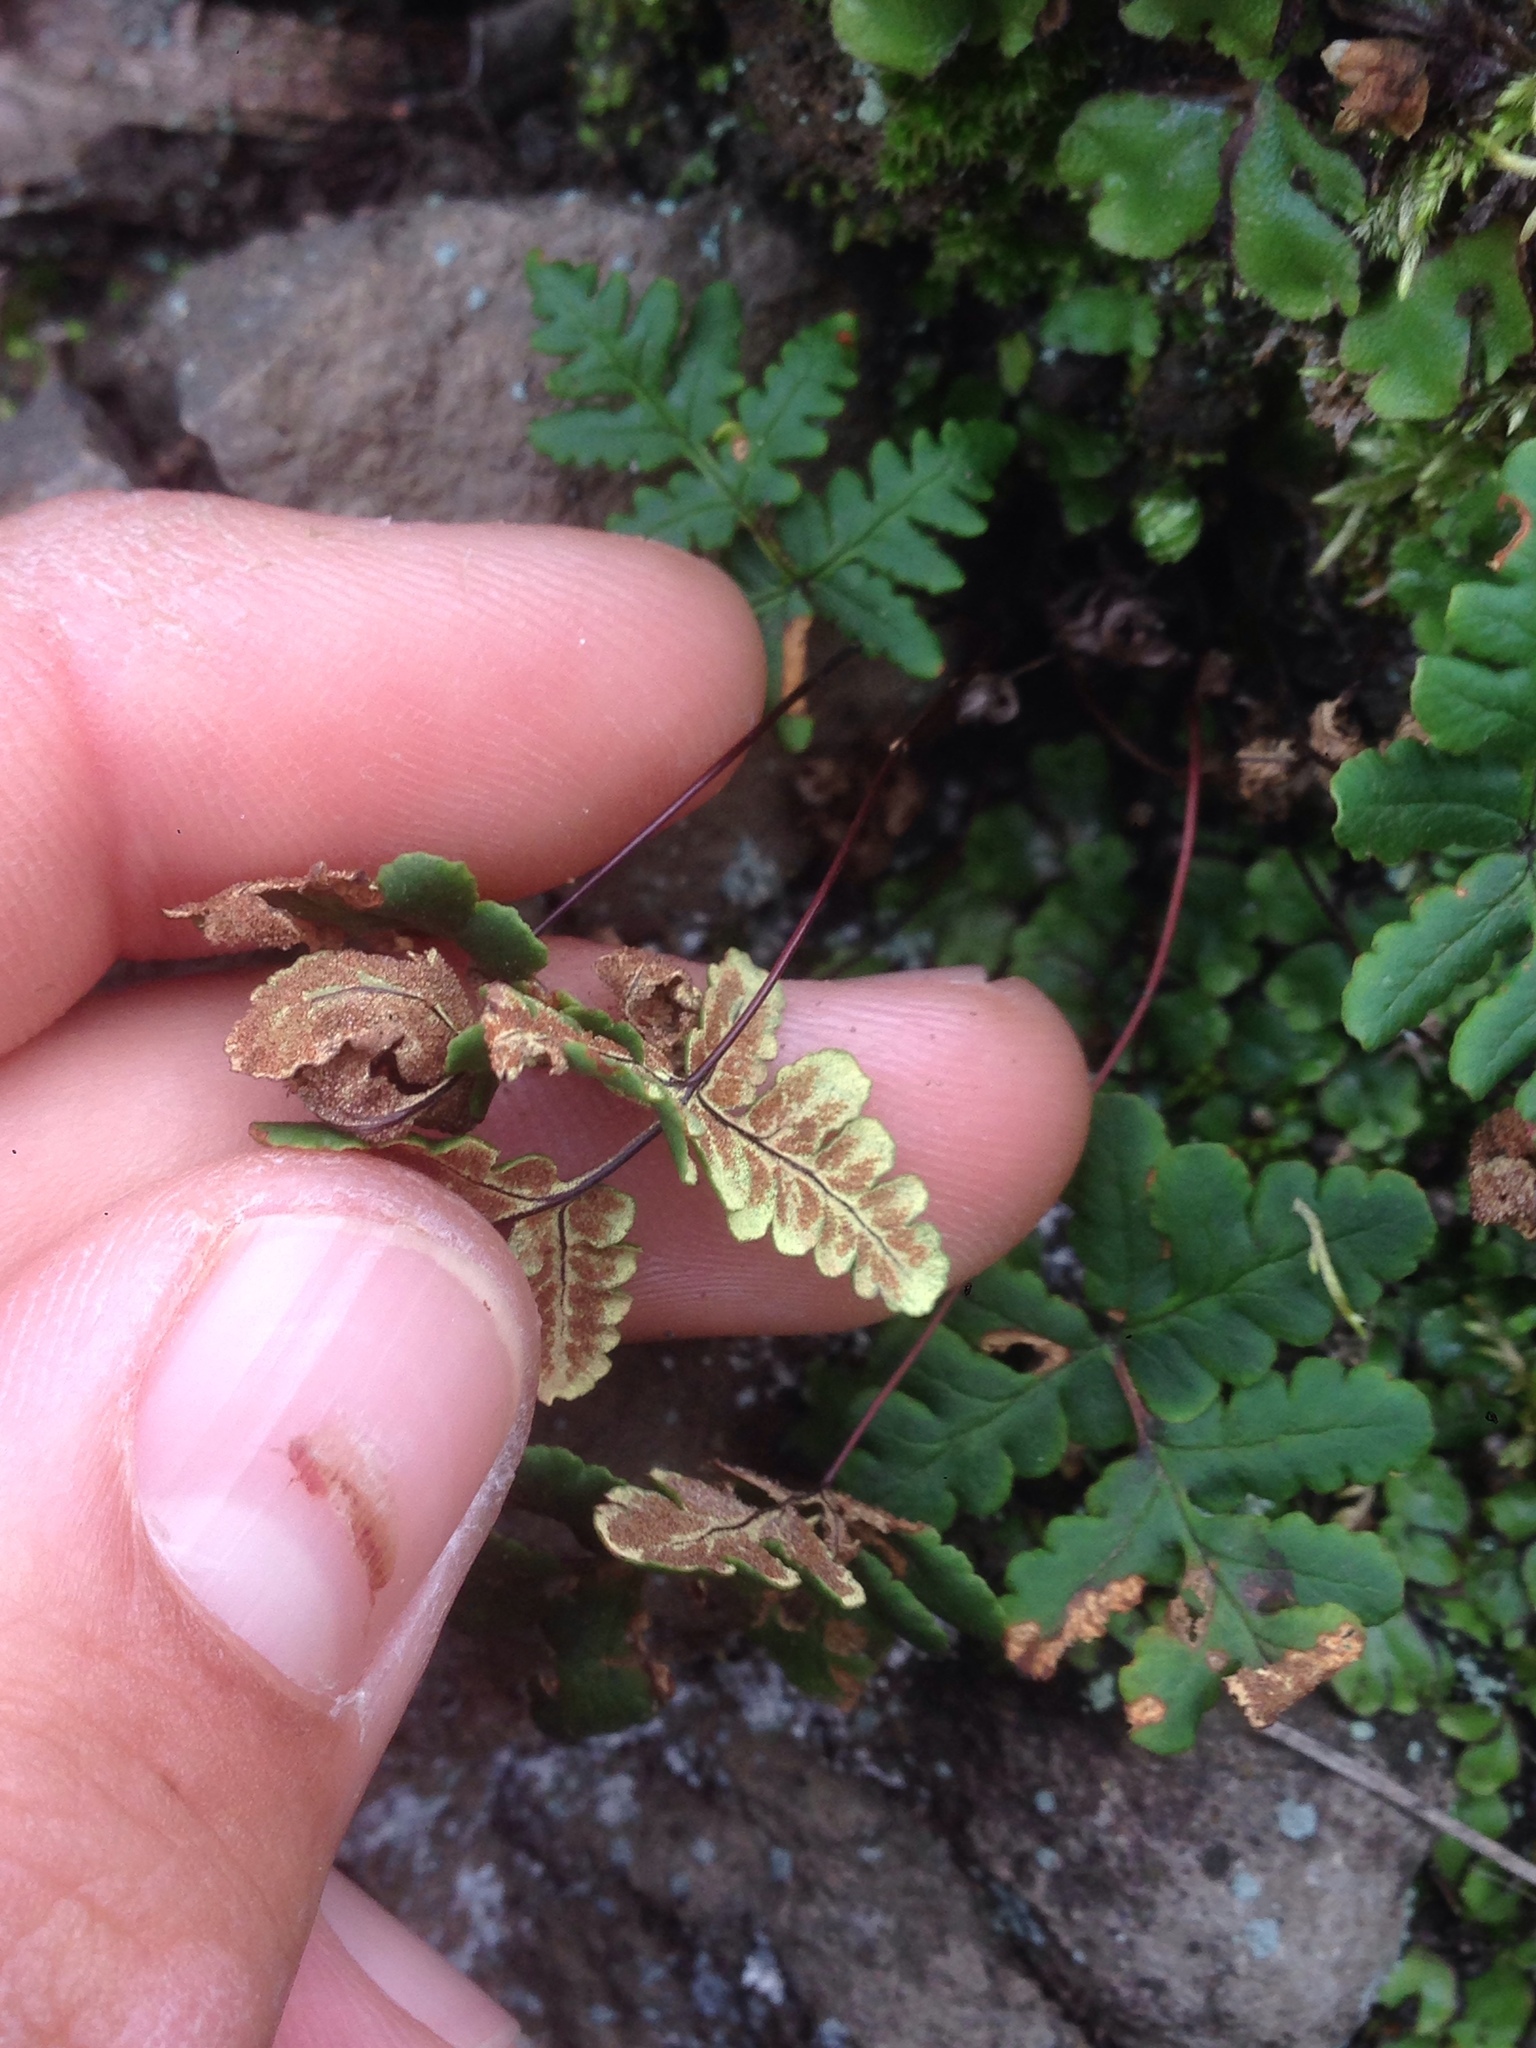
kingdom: Plantae
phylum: Tracheophyta
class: Polypodiopsida
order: Polypodiales
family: Pteridaceae
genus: Pentagramma
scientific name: Pentagramma triangularis
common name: Gold fern
